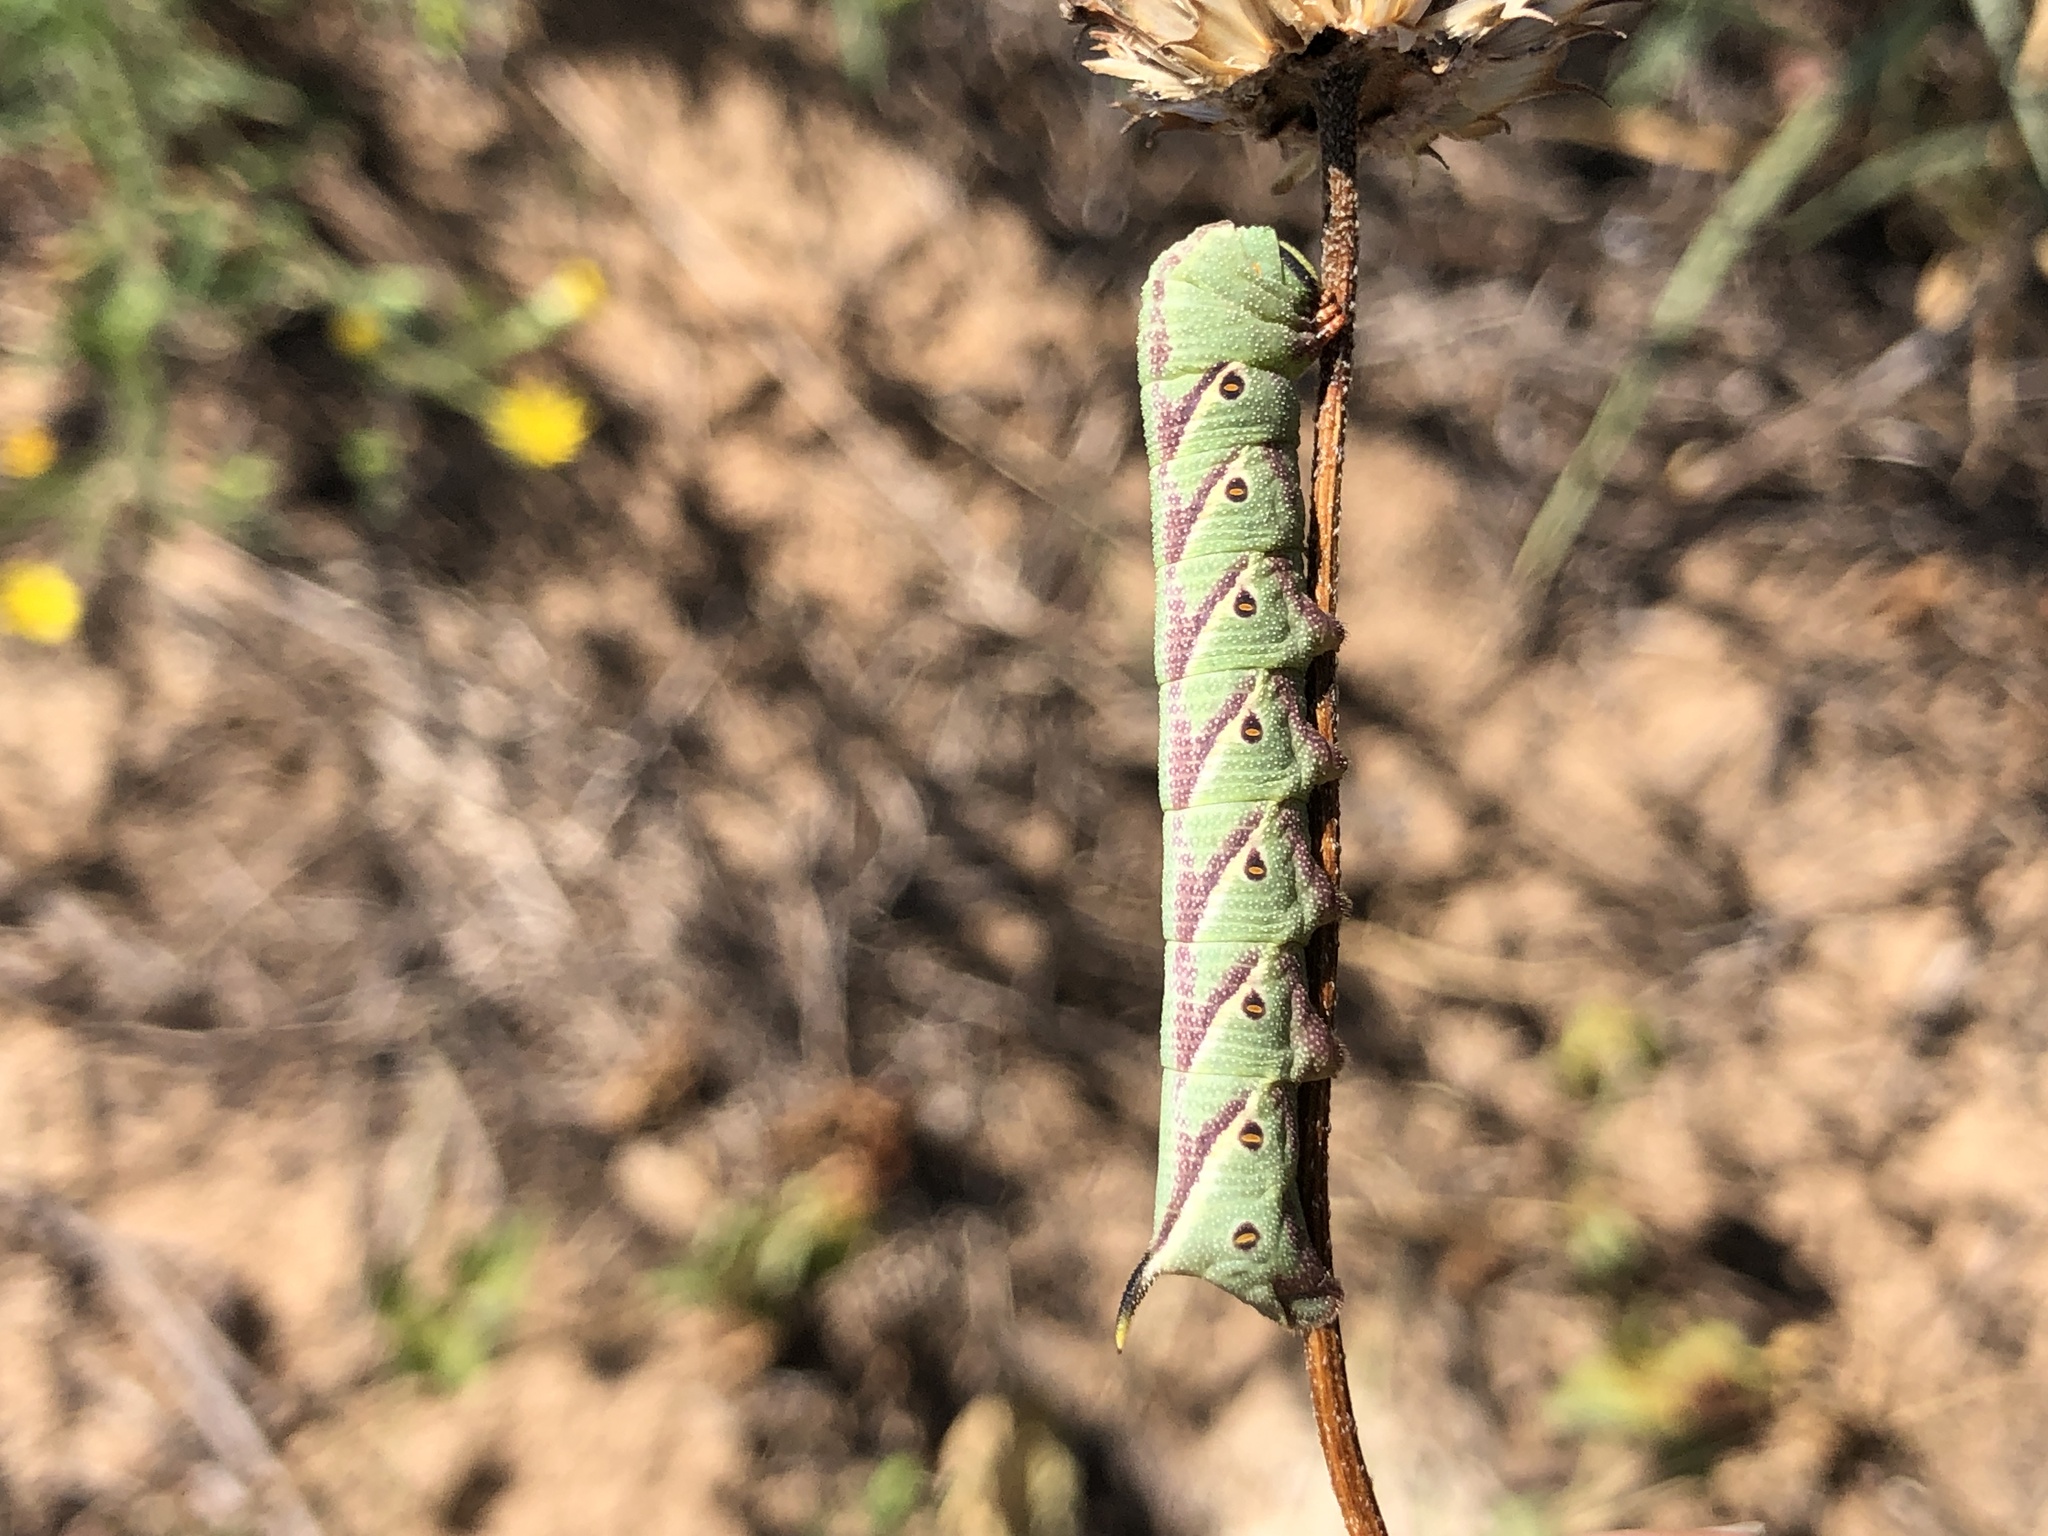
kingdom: Animalia
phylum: Arthropoda
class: Insecta
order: Lepidoptera
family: Sphingidae
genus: Agrius
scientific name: Agrius cingulata
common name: Pink-spotted hawkmoth
